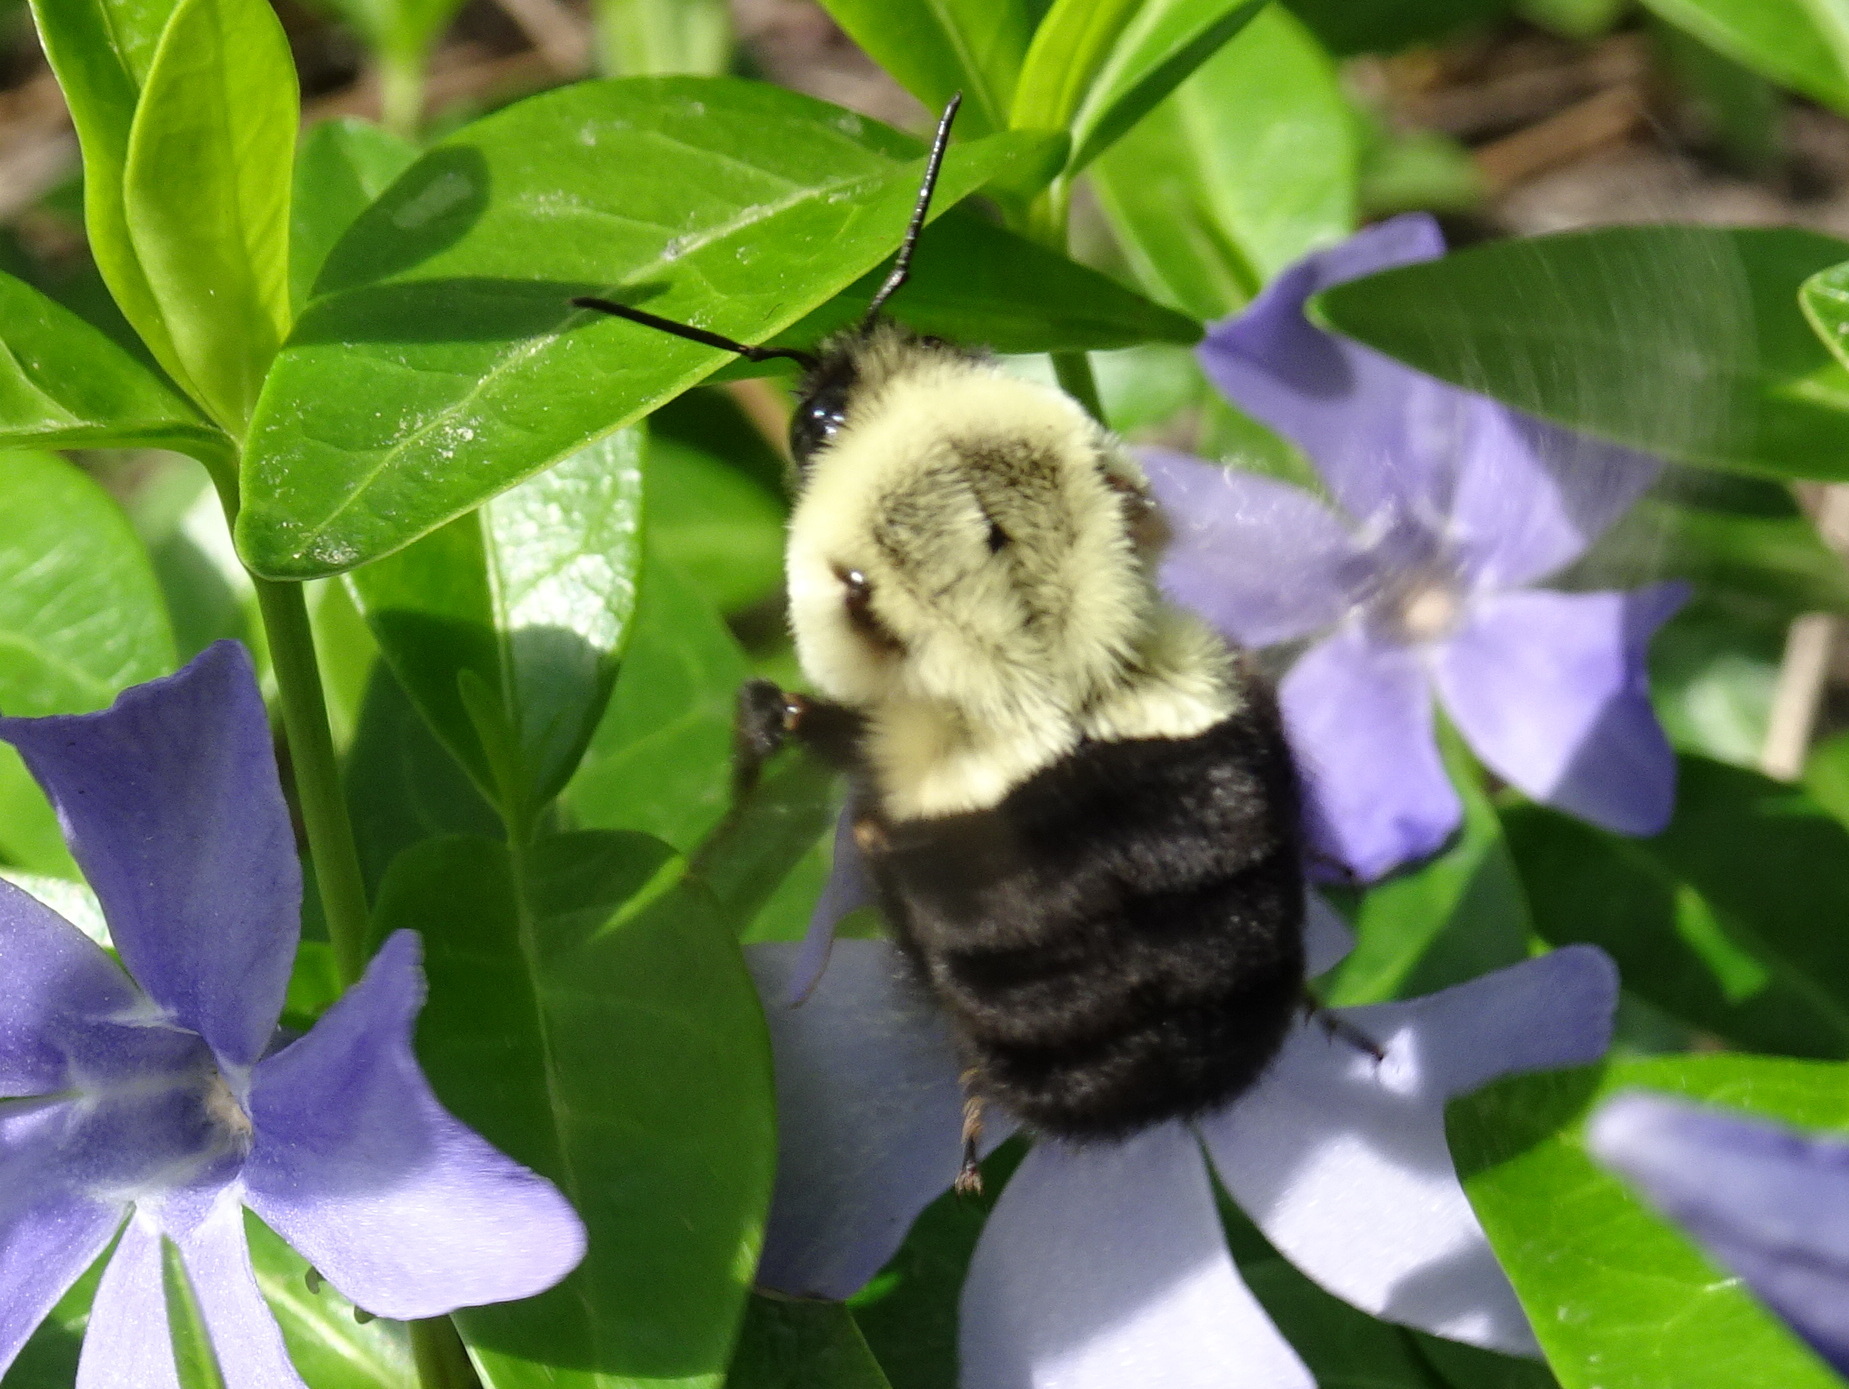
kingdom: Animalia
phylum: Arthropoda
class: Insecta
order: Hymenoptera
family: Apidae
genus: Bombus
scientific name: Bombus impatiens
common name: Common eastern bumble bee
